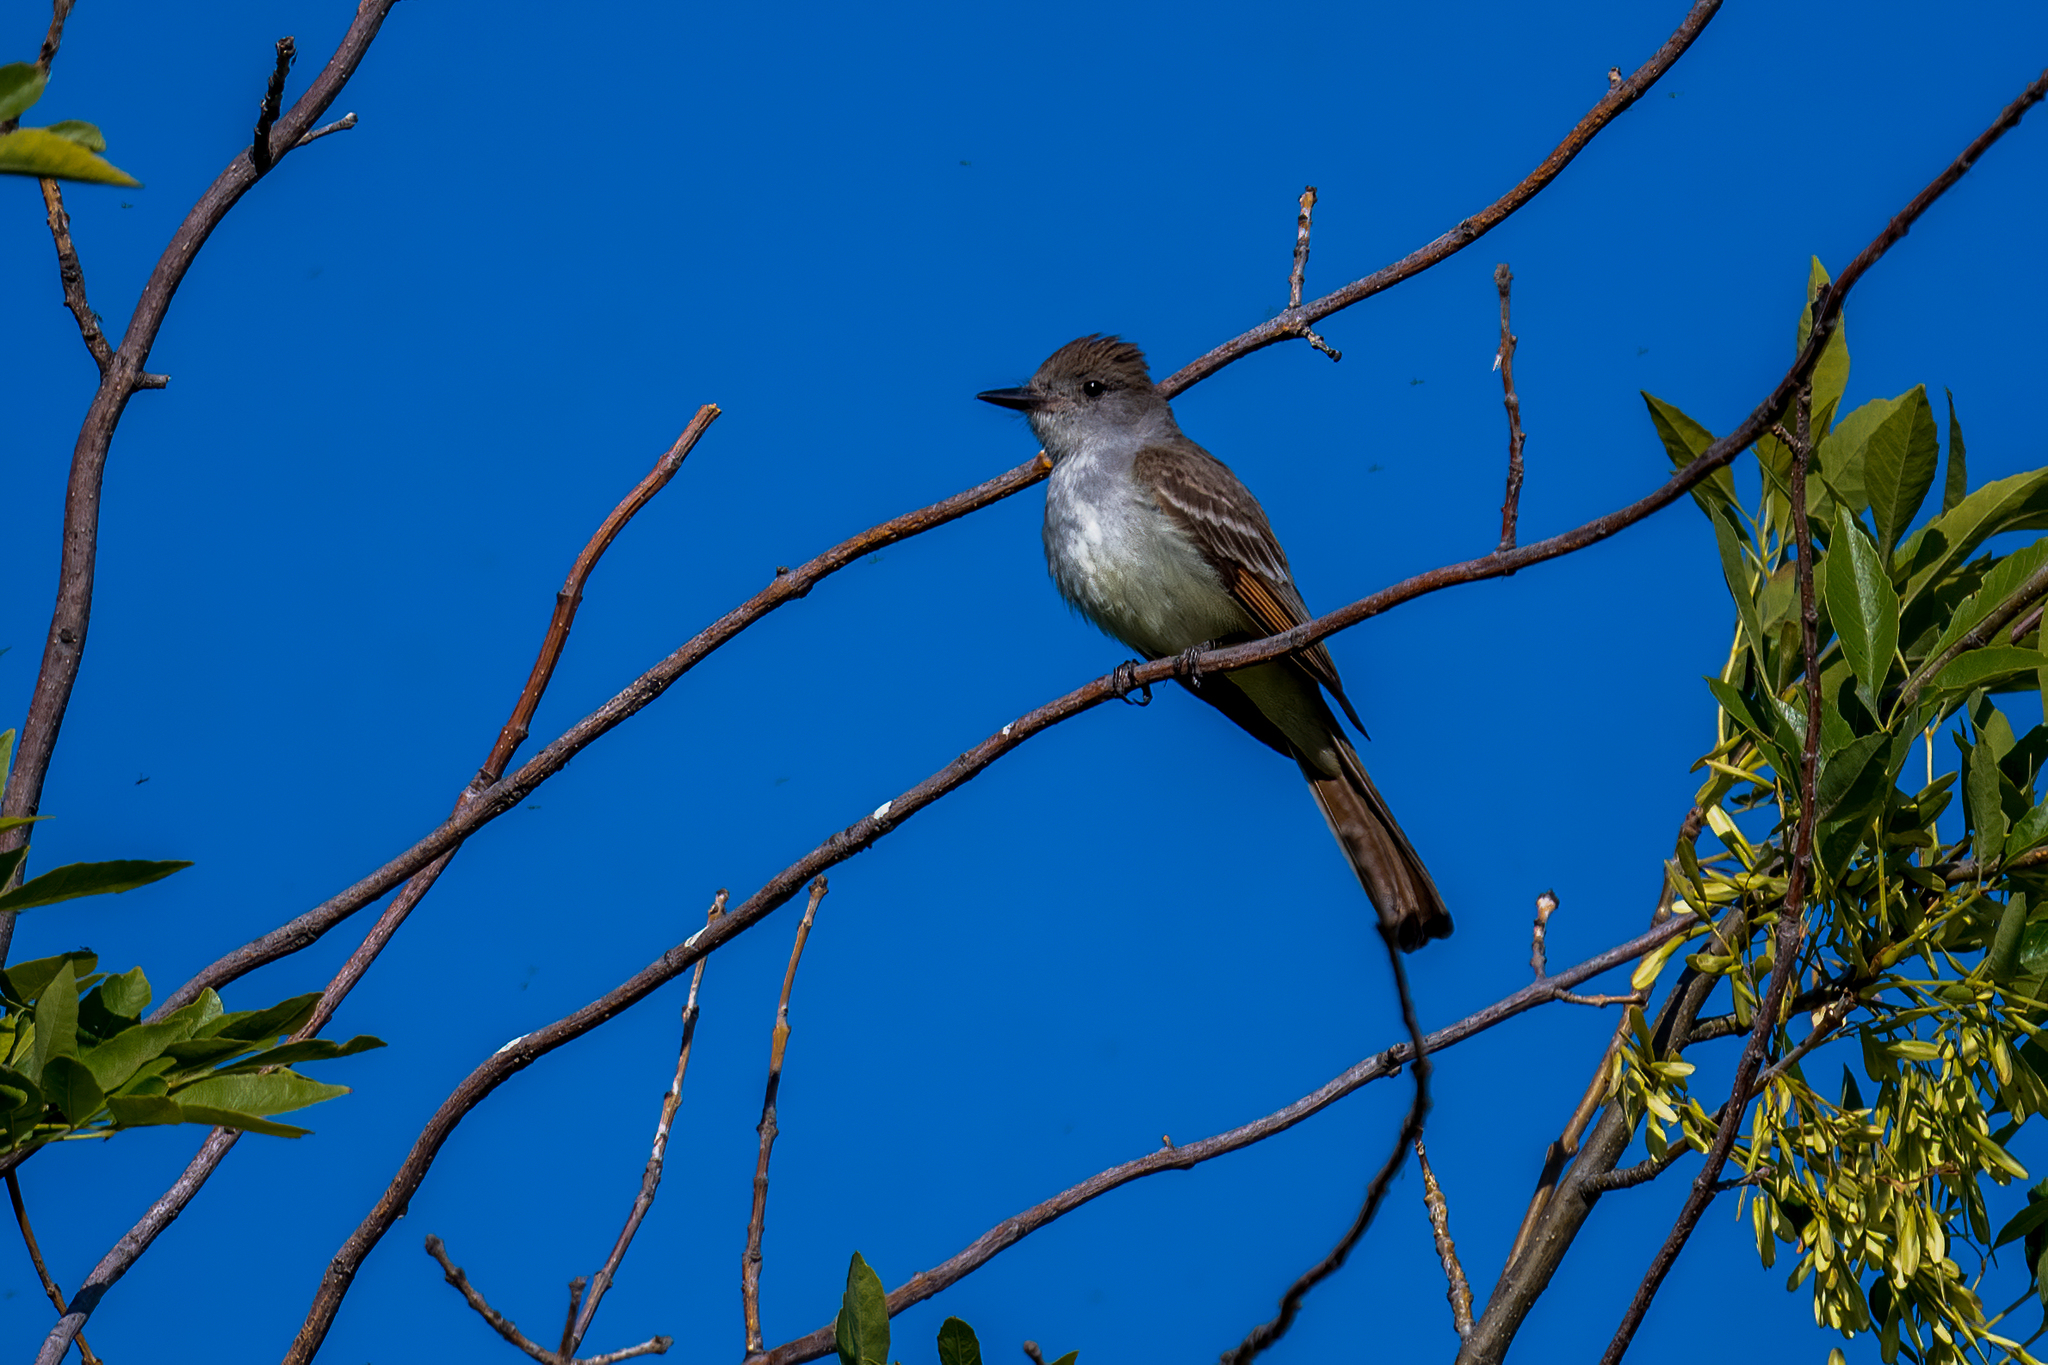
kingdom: Animalia
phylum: Chordata
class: Aves
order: Passeriformes
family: Tyrannidae
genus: Myiarchus
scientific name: Myiarchus cinerascens
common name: Ash-throated flycatcher
